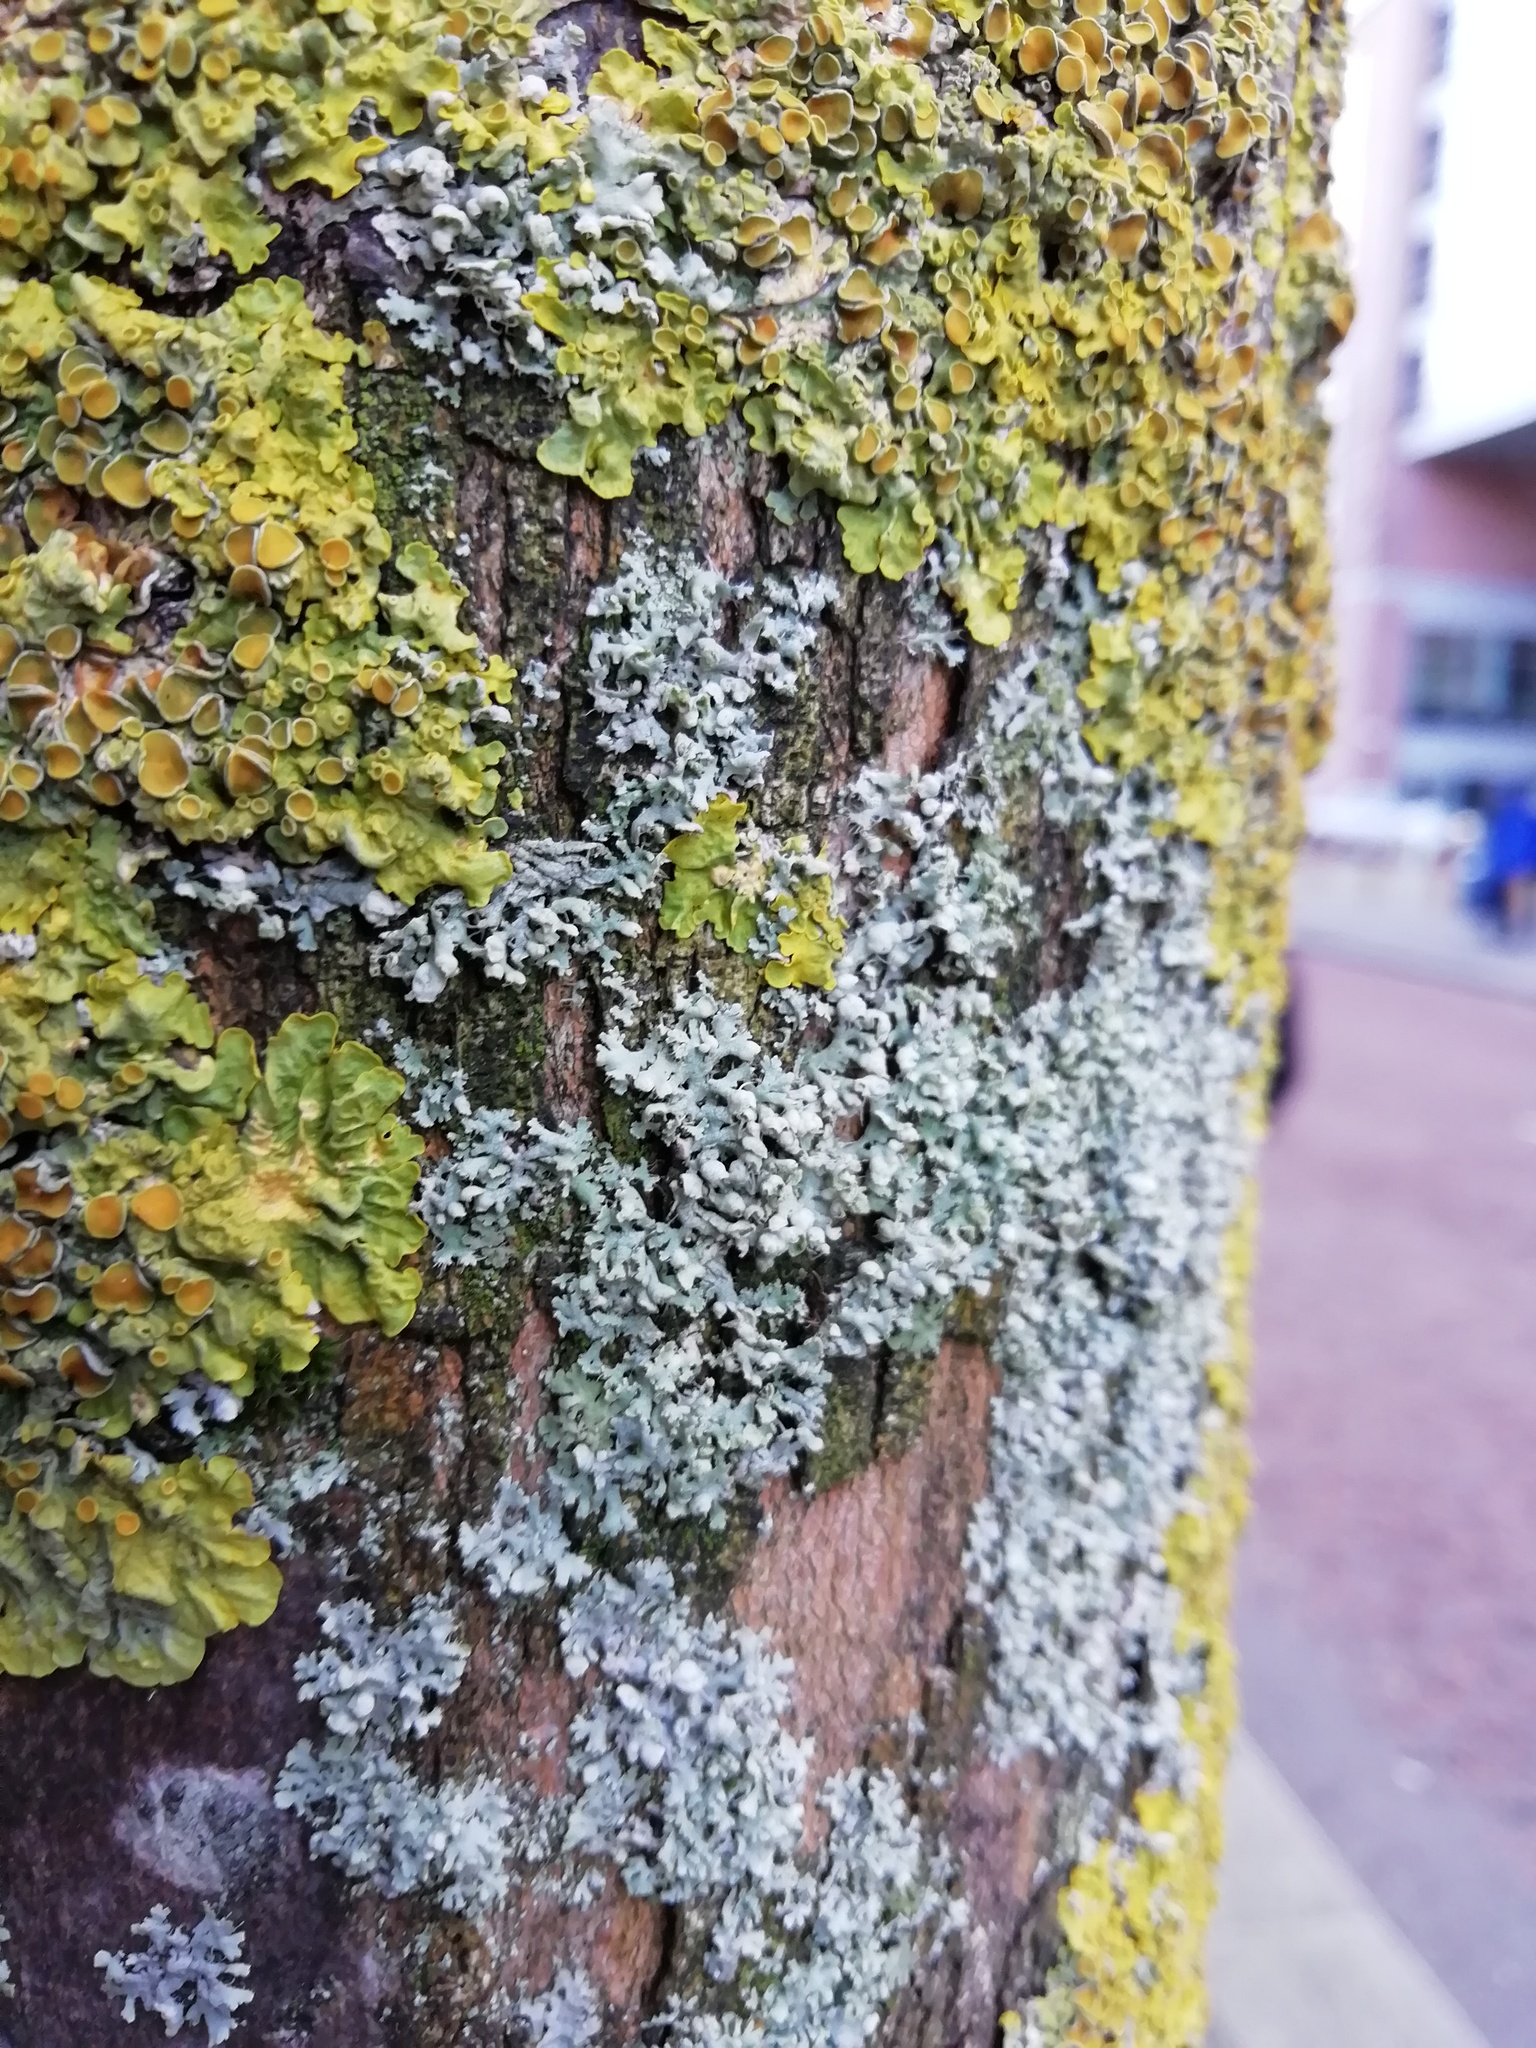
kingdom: Fungi
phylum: Ascomycota
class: Lecanoromycetes
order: Caliciales
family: Physciaceae
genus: Physcia
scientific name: Physcia adscendens
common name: Hooded rosette lichen
